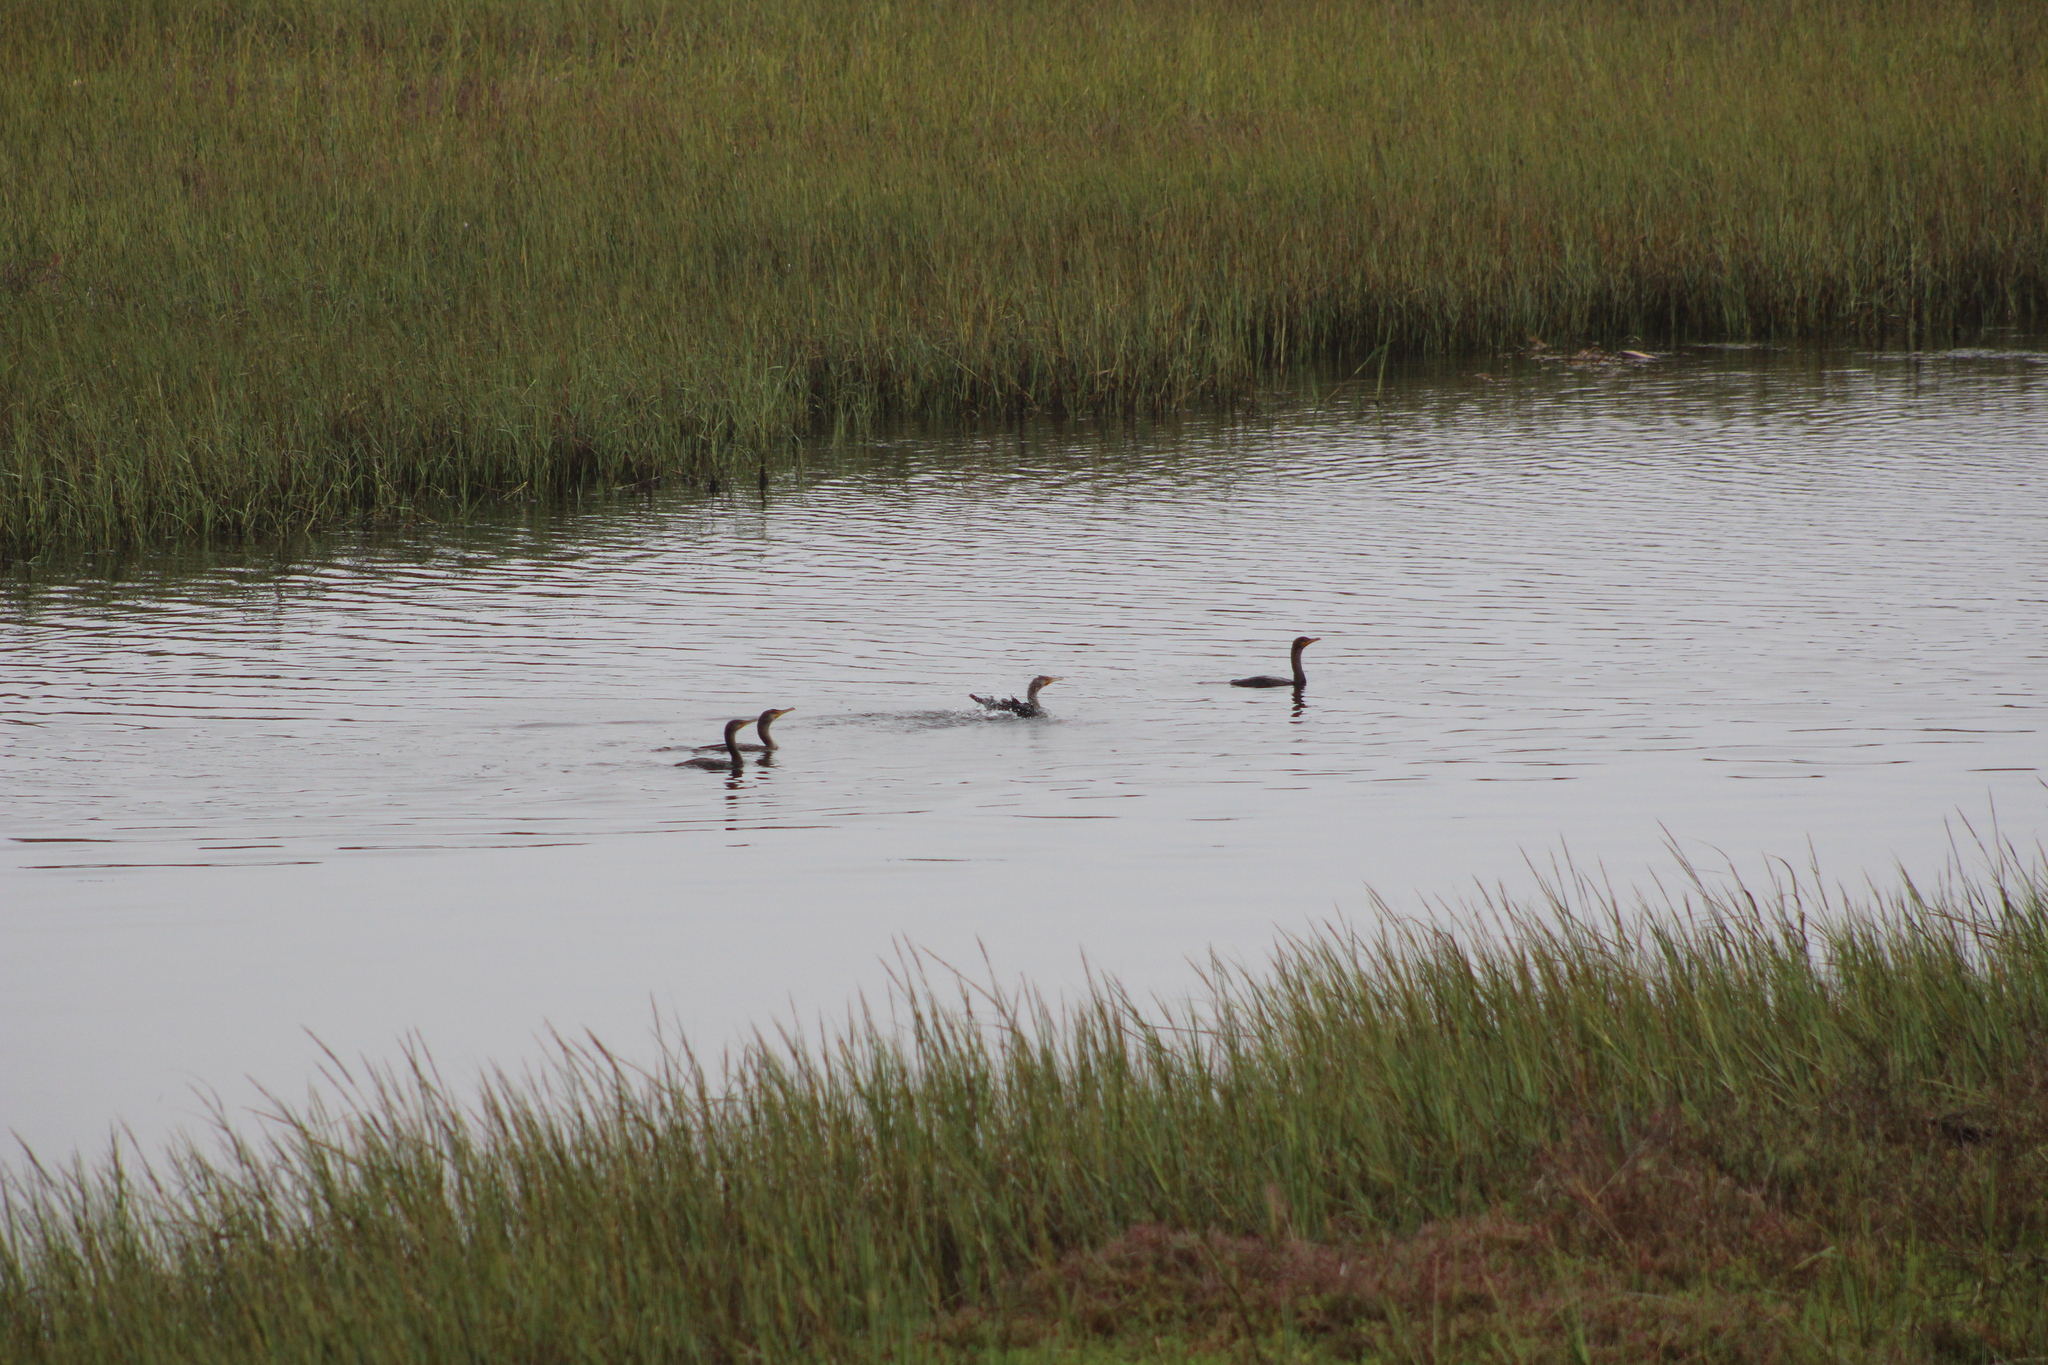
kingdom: Animalia
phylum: Chordata
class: Aves
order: Suliformes
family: Phalacrocoracidae
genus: Phalacrocorax
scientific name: Phalacrocorax auritus
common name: Double-crested cormorant
